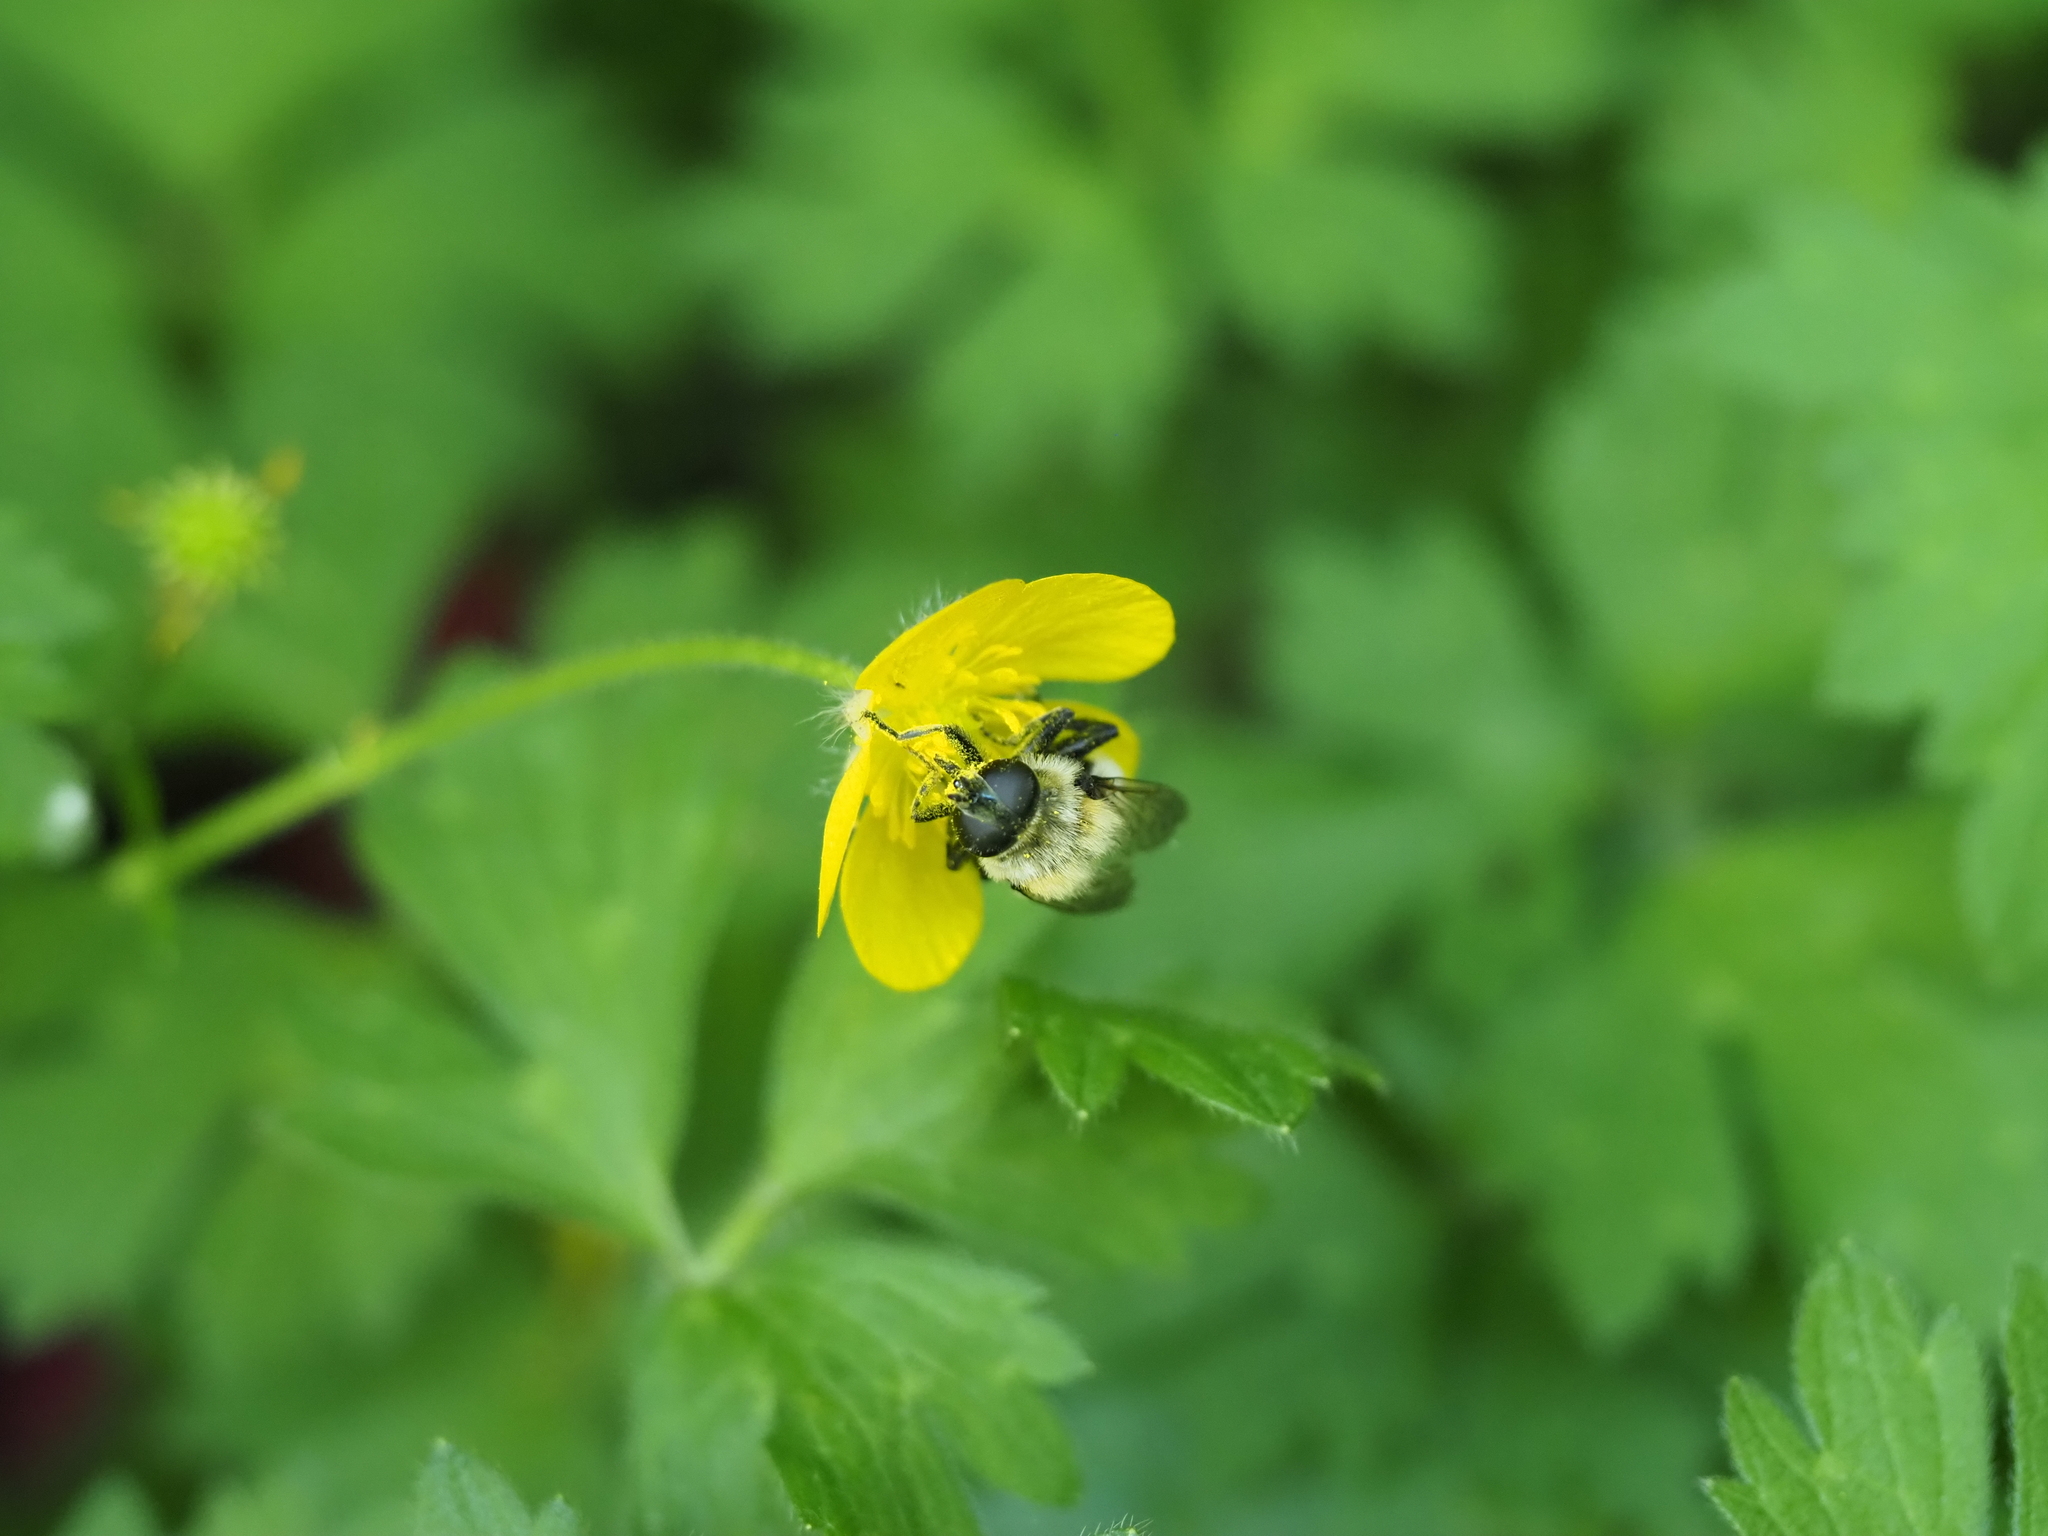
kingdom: Animalia
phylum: Arthropoda
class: Insecta
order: Diptera
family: Syrphidae
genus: Merodon
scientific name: Merodon equestris
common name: Greater bulb-fly
